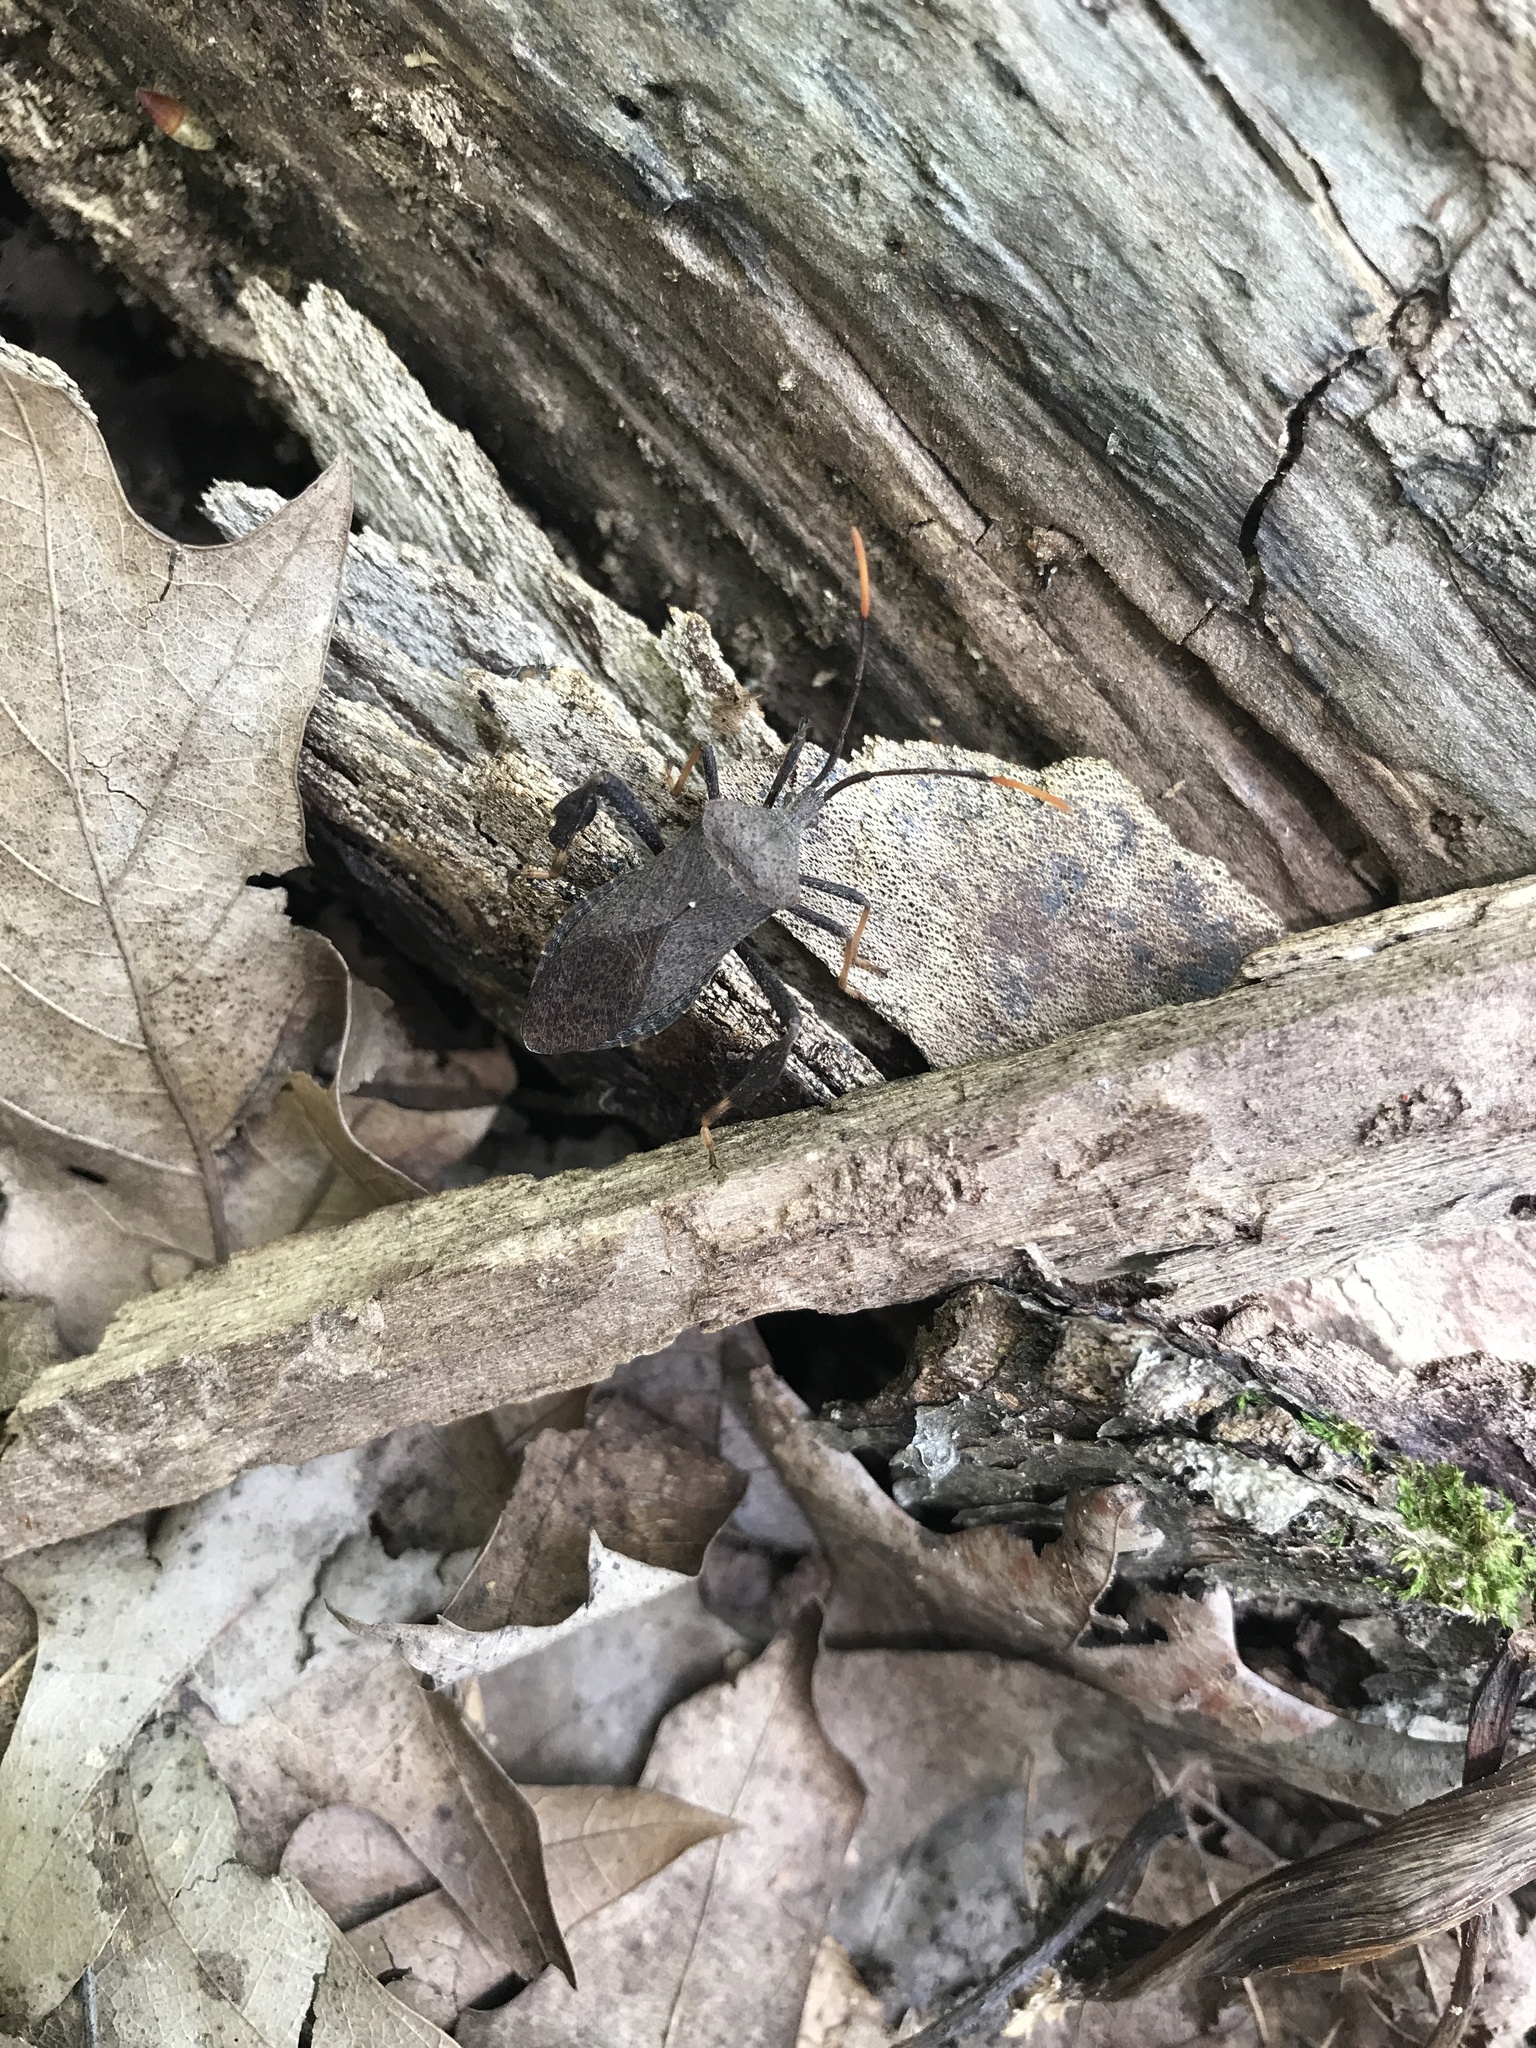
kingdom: Animalia
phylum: Arthropoda
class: Insecta
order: Hemiptera
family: Coreidae
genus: Acanthocephala
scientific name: Acanthocephala terminalis
